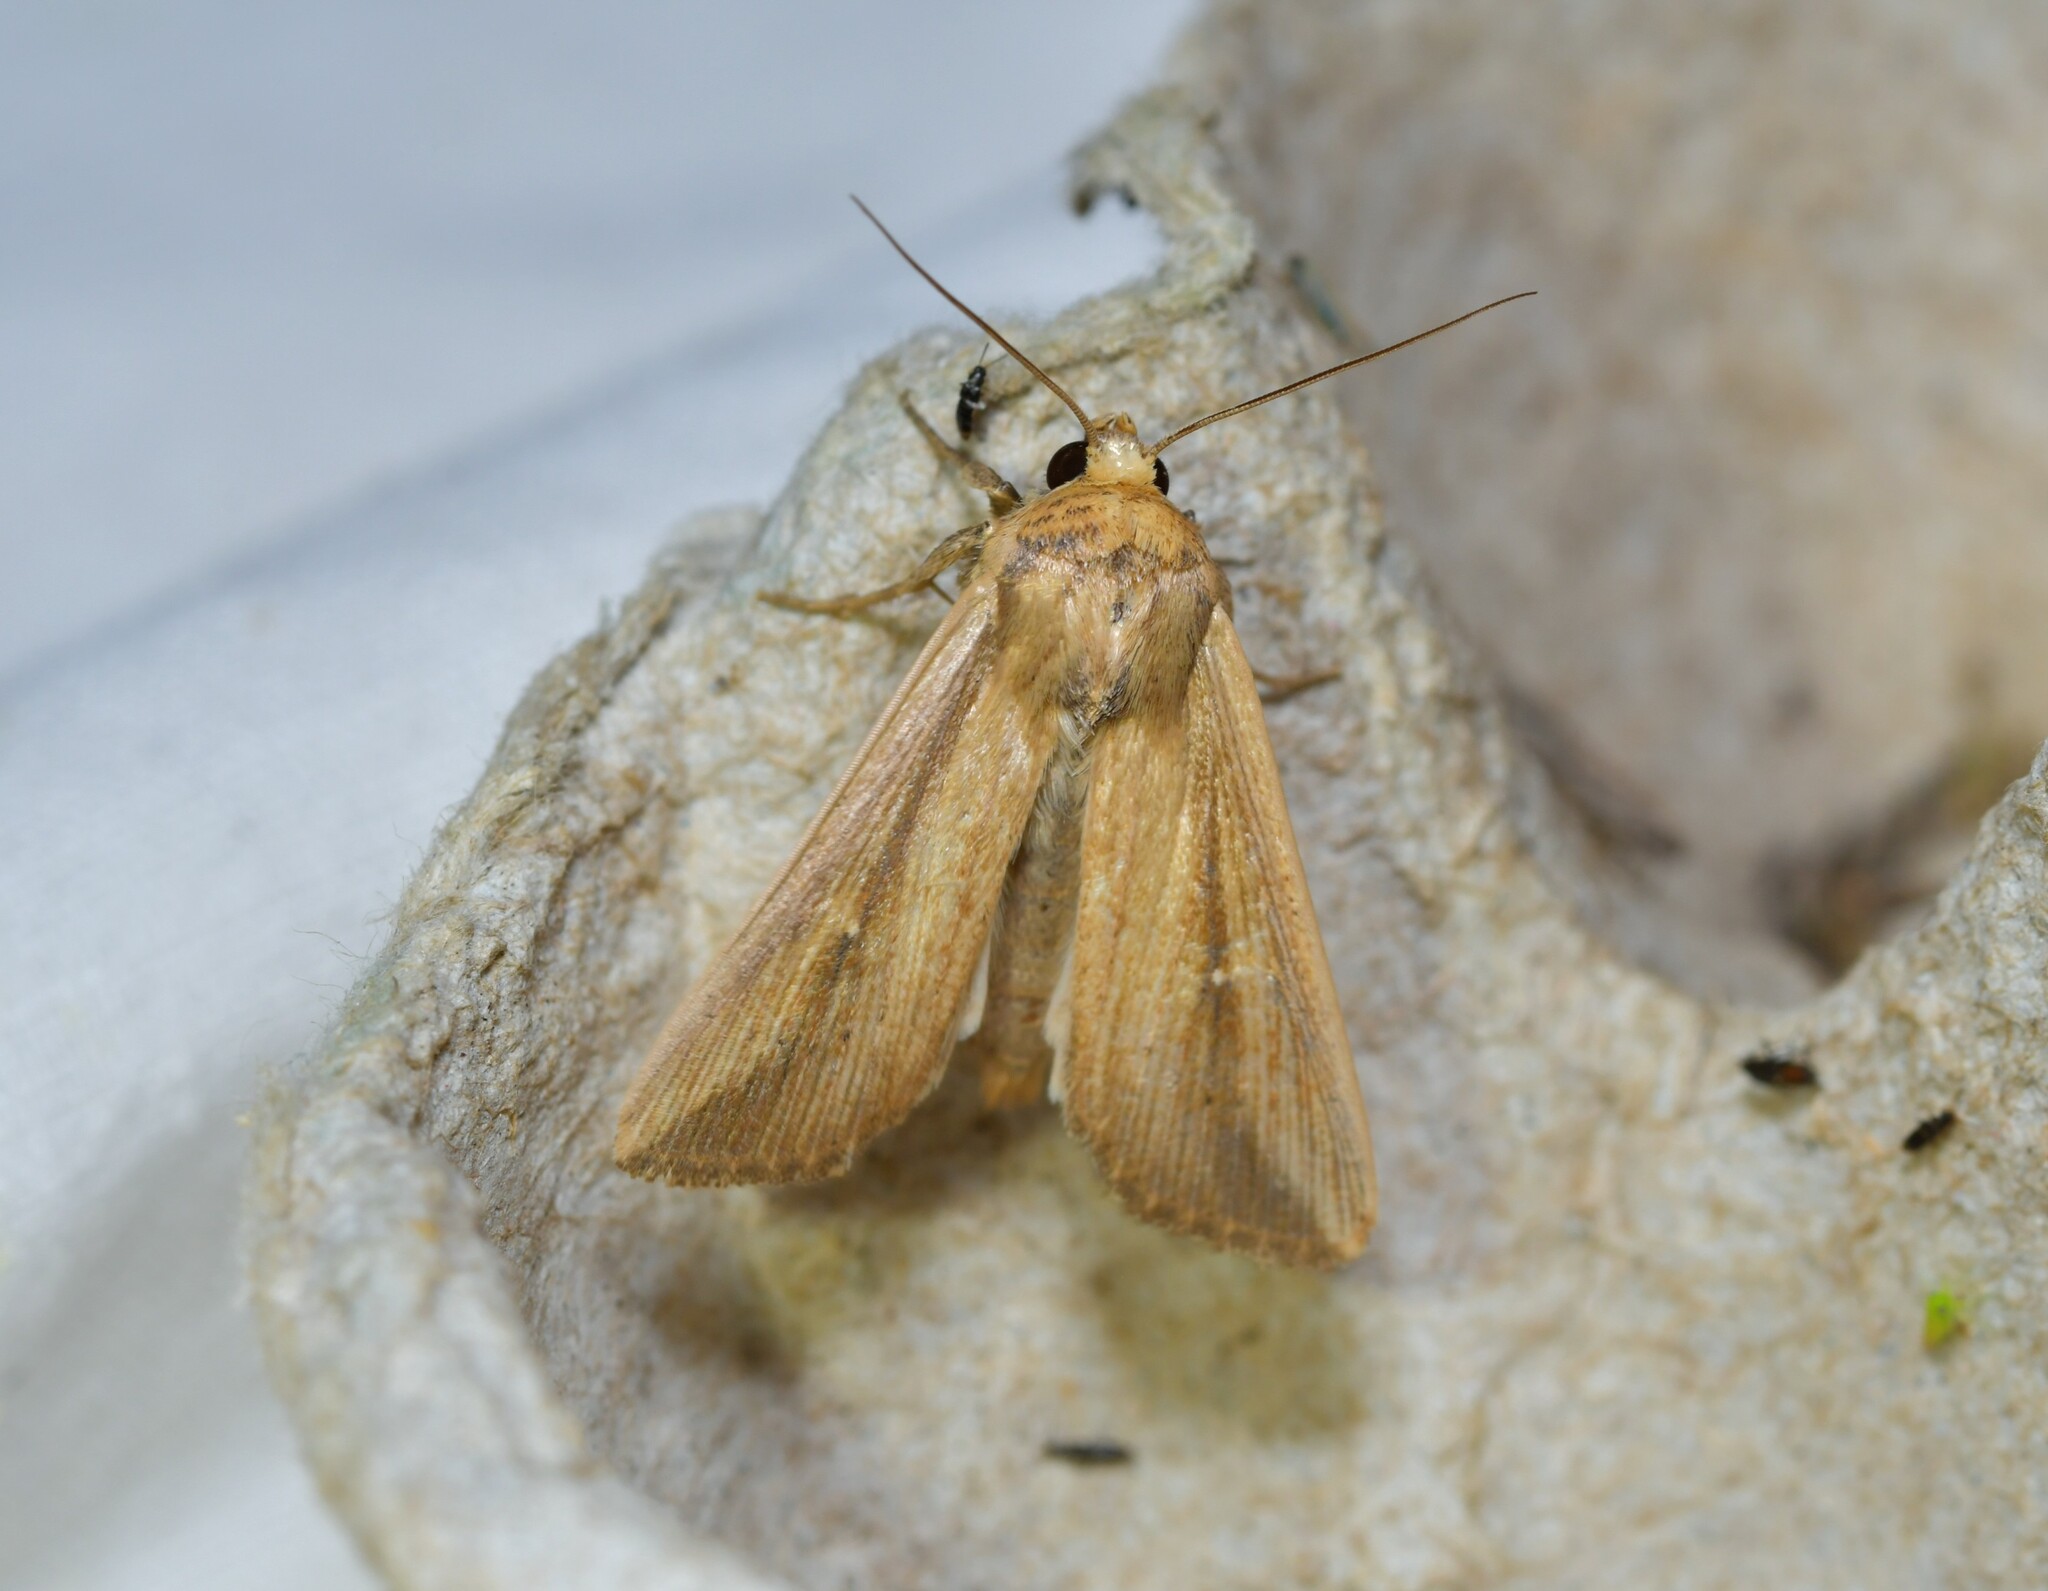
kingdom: Animalia
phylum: Arthropoda
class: Insecta
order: Lepidoptera
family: Noctuidae
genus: Leucania
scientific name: Leucania loreyi
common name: The cosmopolitan
